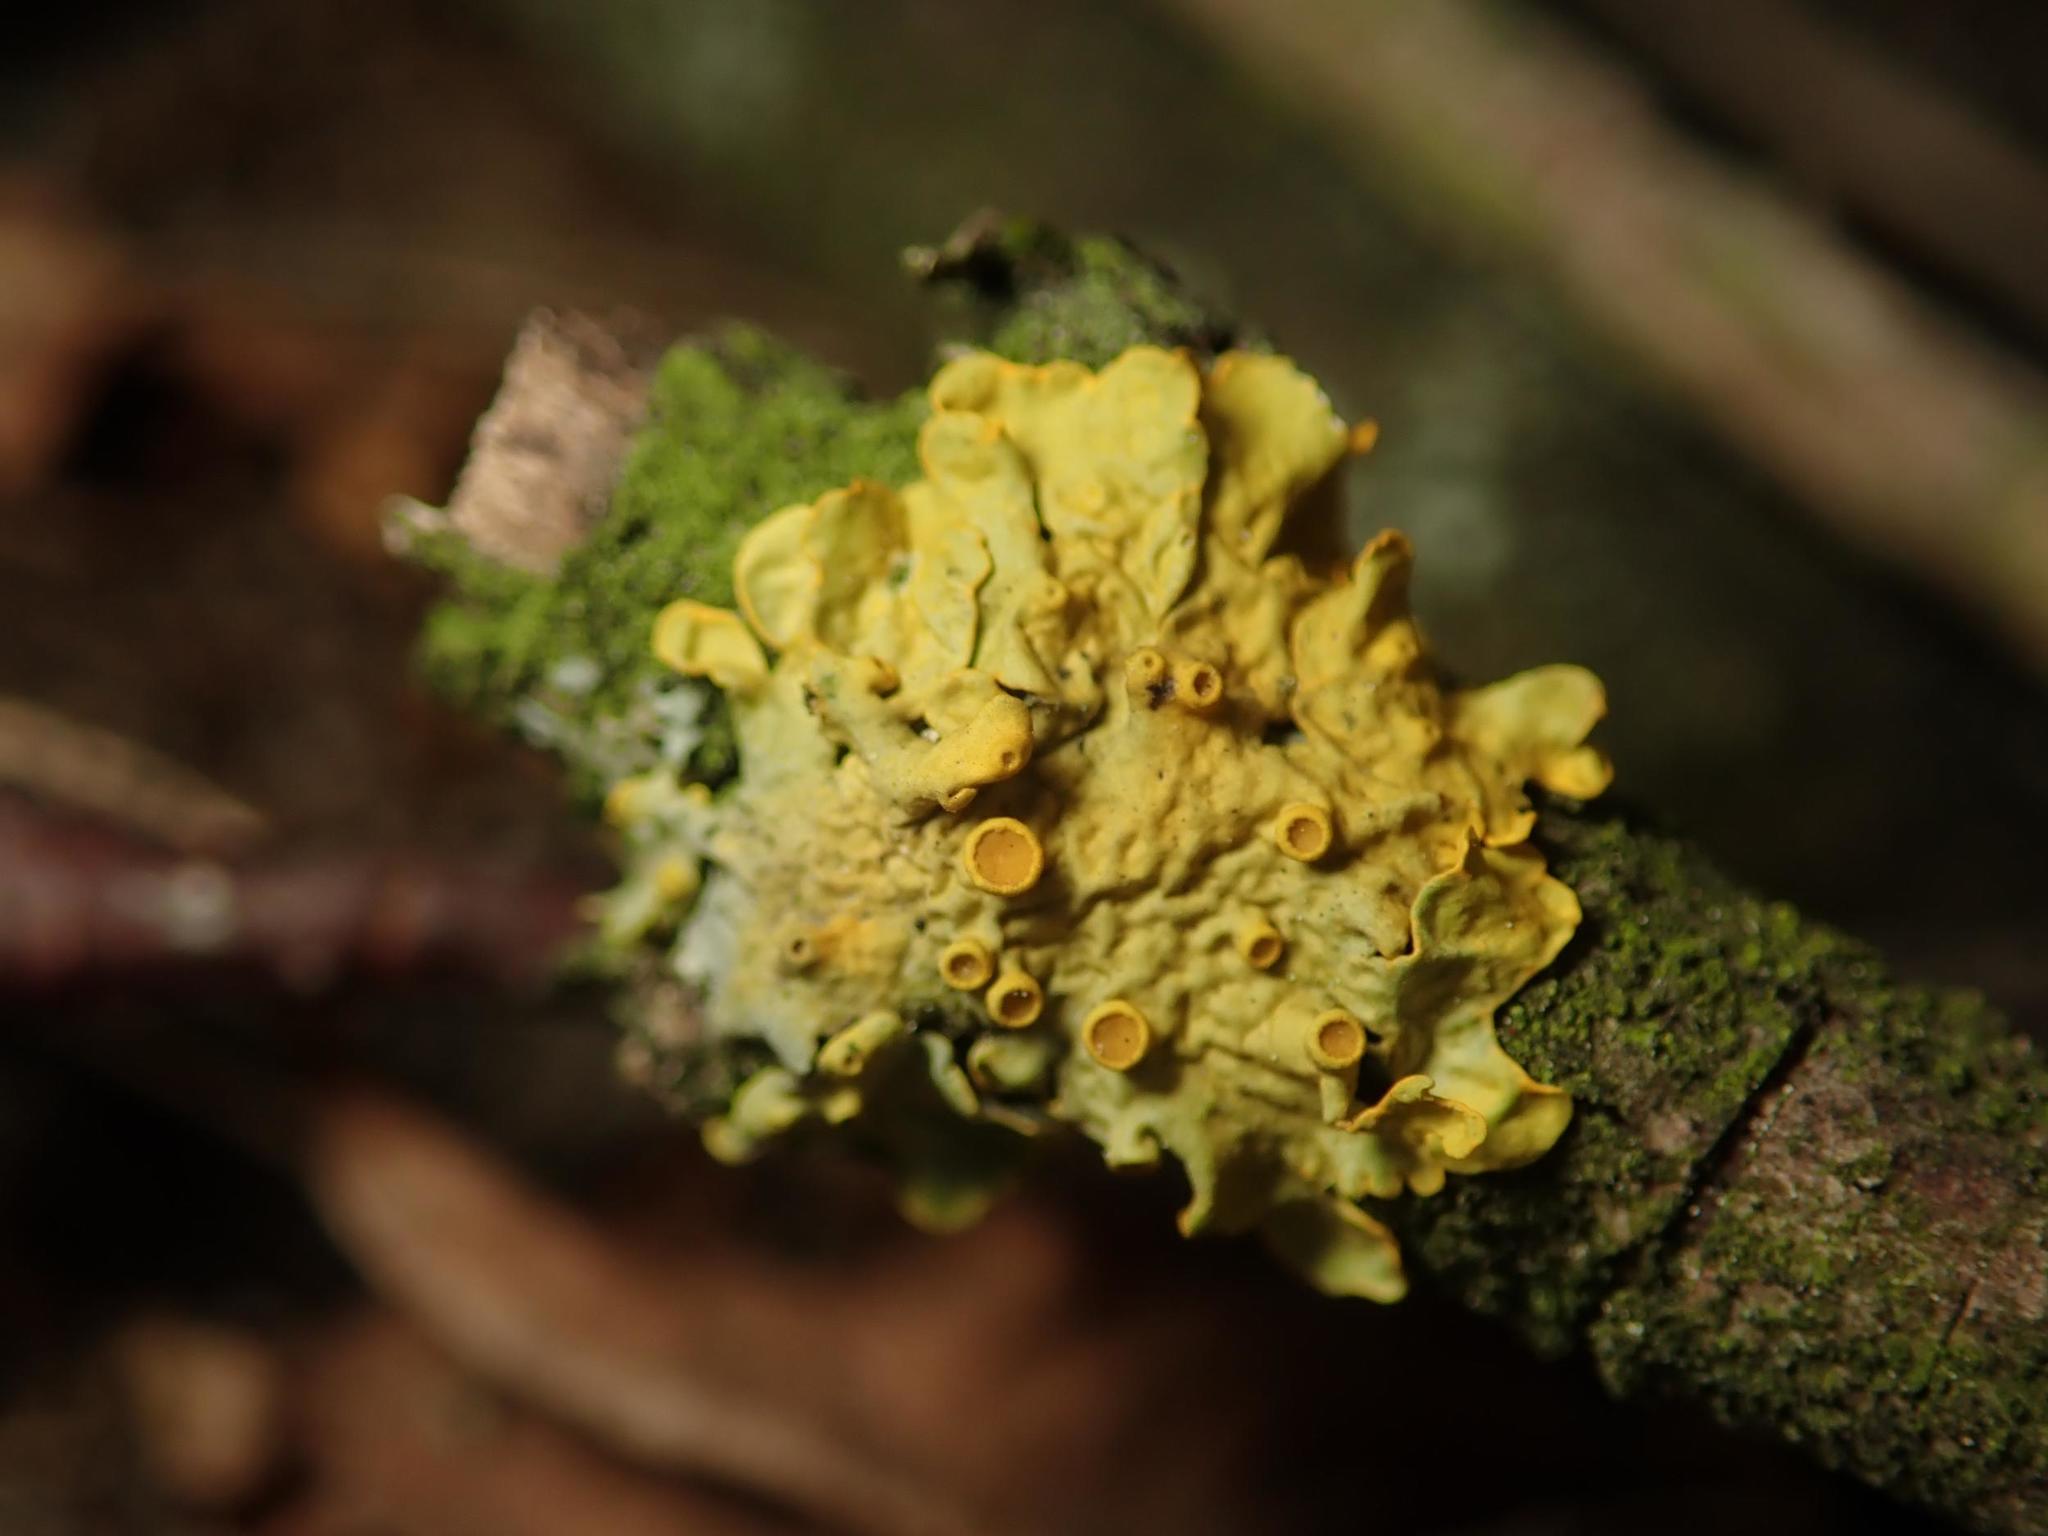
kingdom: Fungi
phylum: Ascomycota
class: Lecanoromycetes
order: Teloschistales
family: Teloschistaceae
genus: Xanthoria
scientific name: Xanthoria parietina
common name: Common orange lichen
